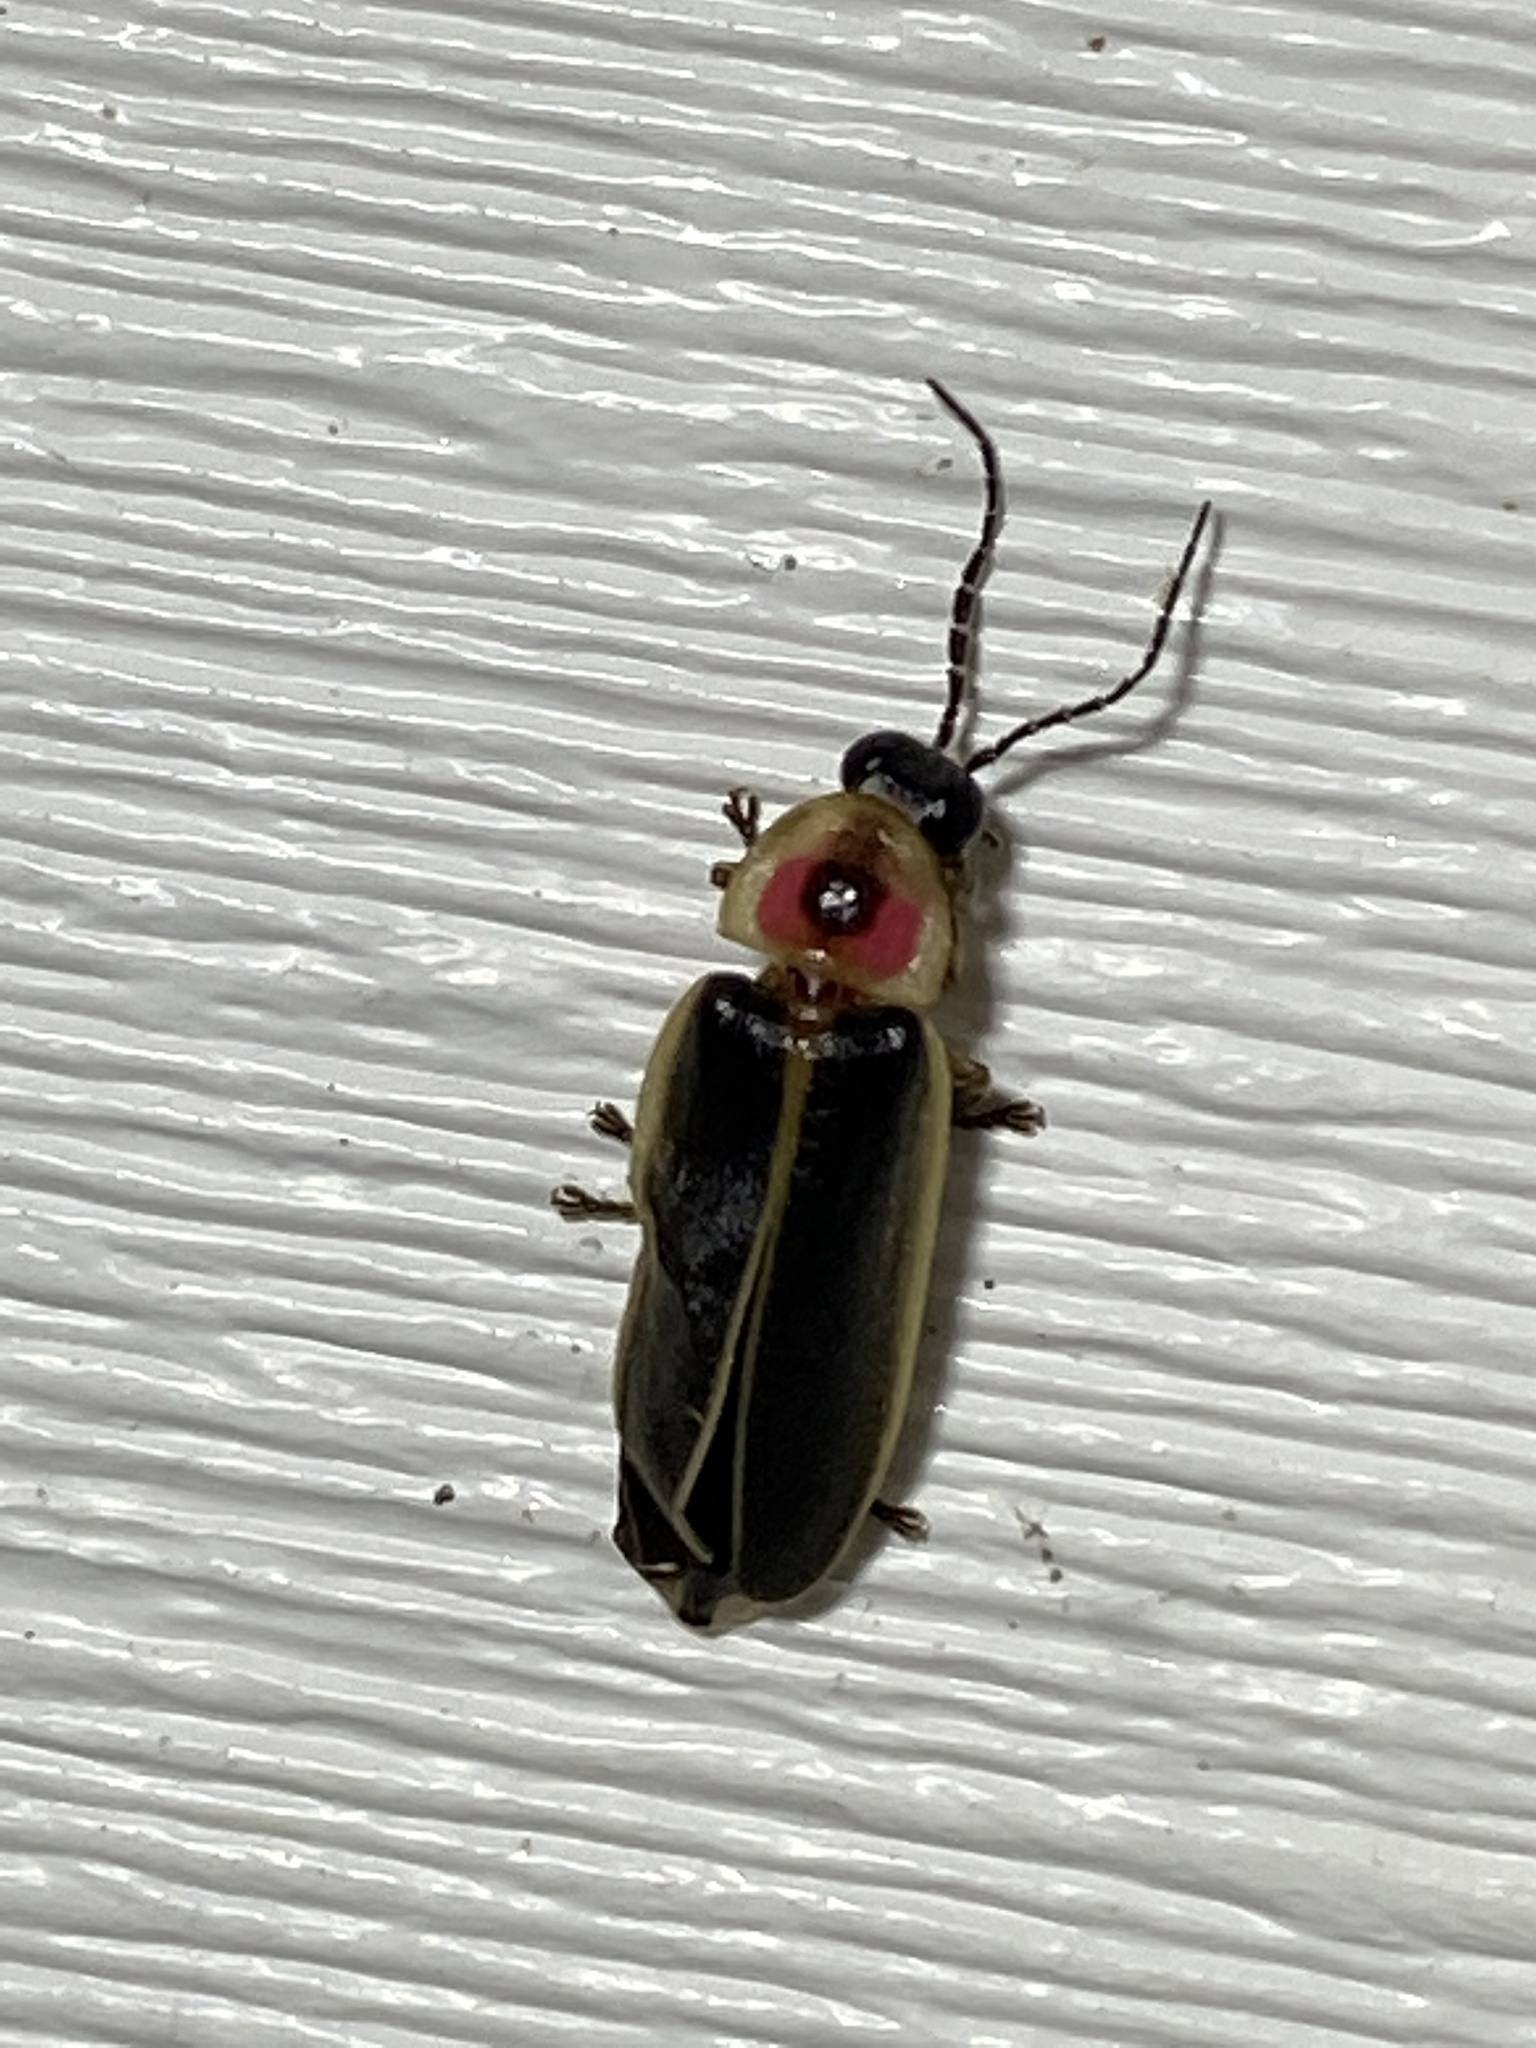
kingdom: Animalia
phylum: Arthropoda
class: Insecta
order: Coleoptera
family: Lampyridae
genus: Photinus
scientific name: Photinus pyralis
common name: Big dipper firefly
